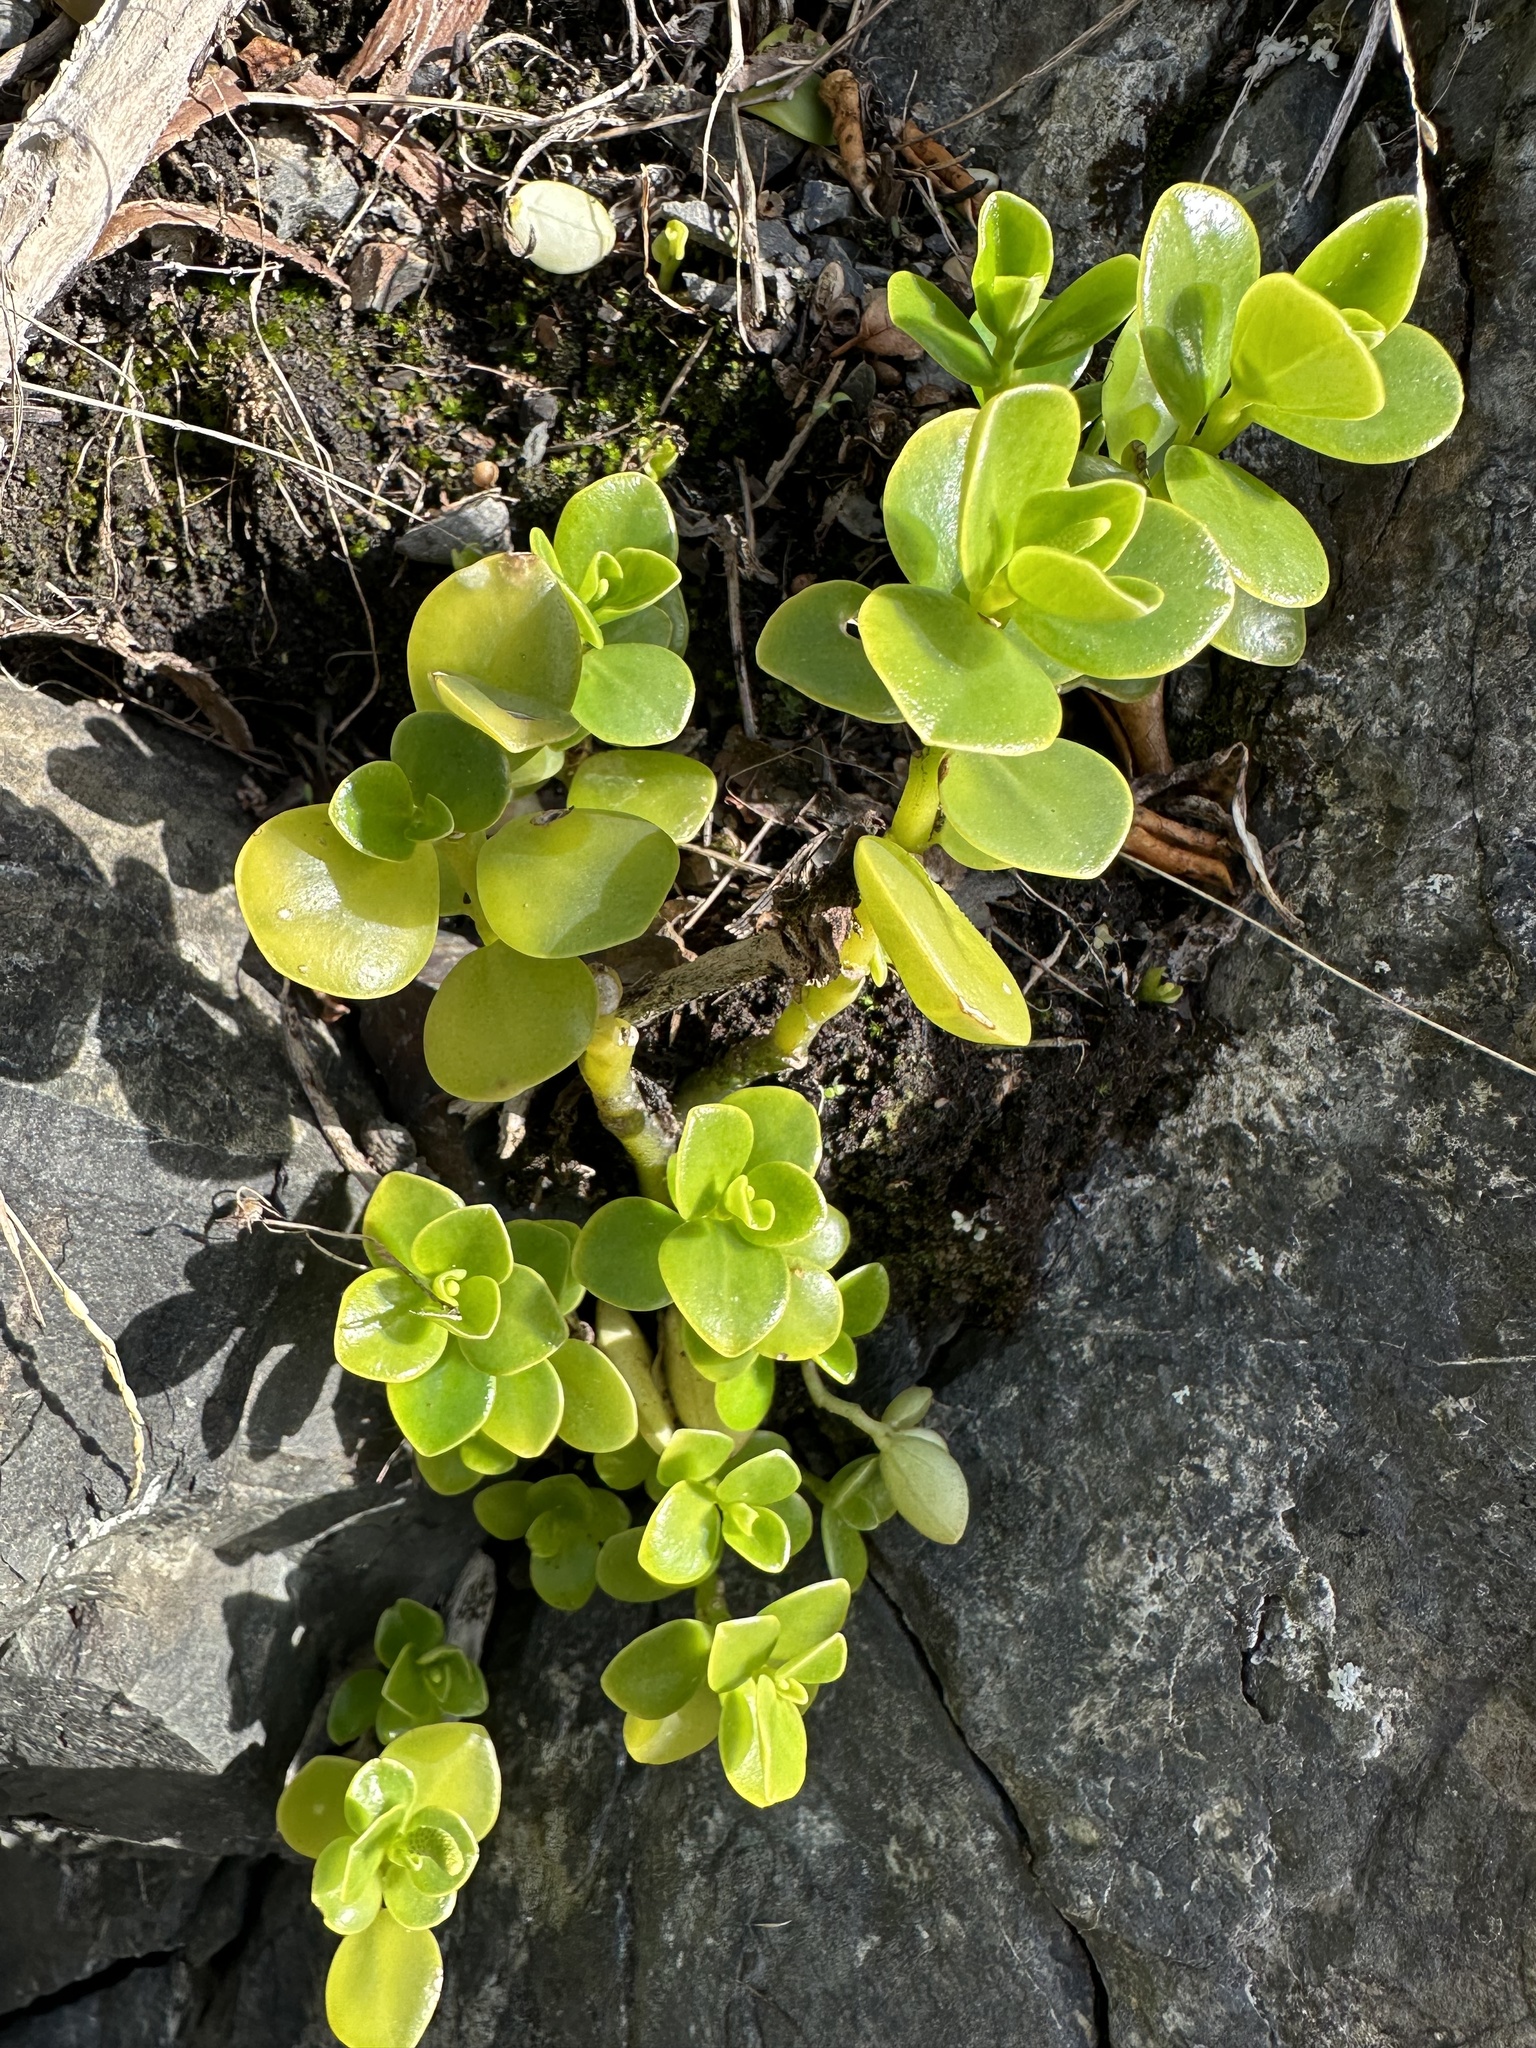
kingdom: Plantae
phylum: Tracheophyta
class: Magnoliopsida
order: Piperales
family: Piperaceae
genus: Peperomia
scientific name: Peperomia urvilleana
